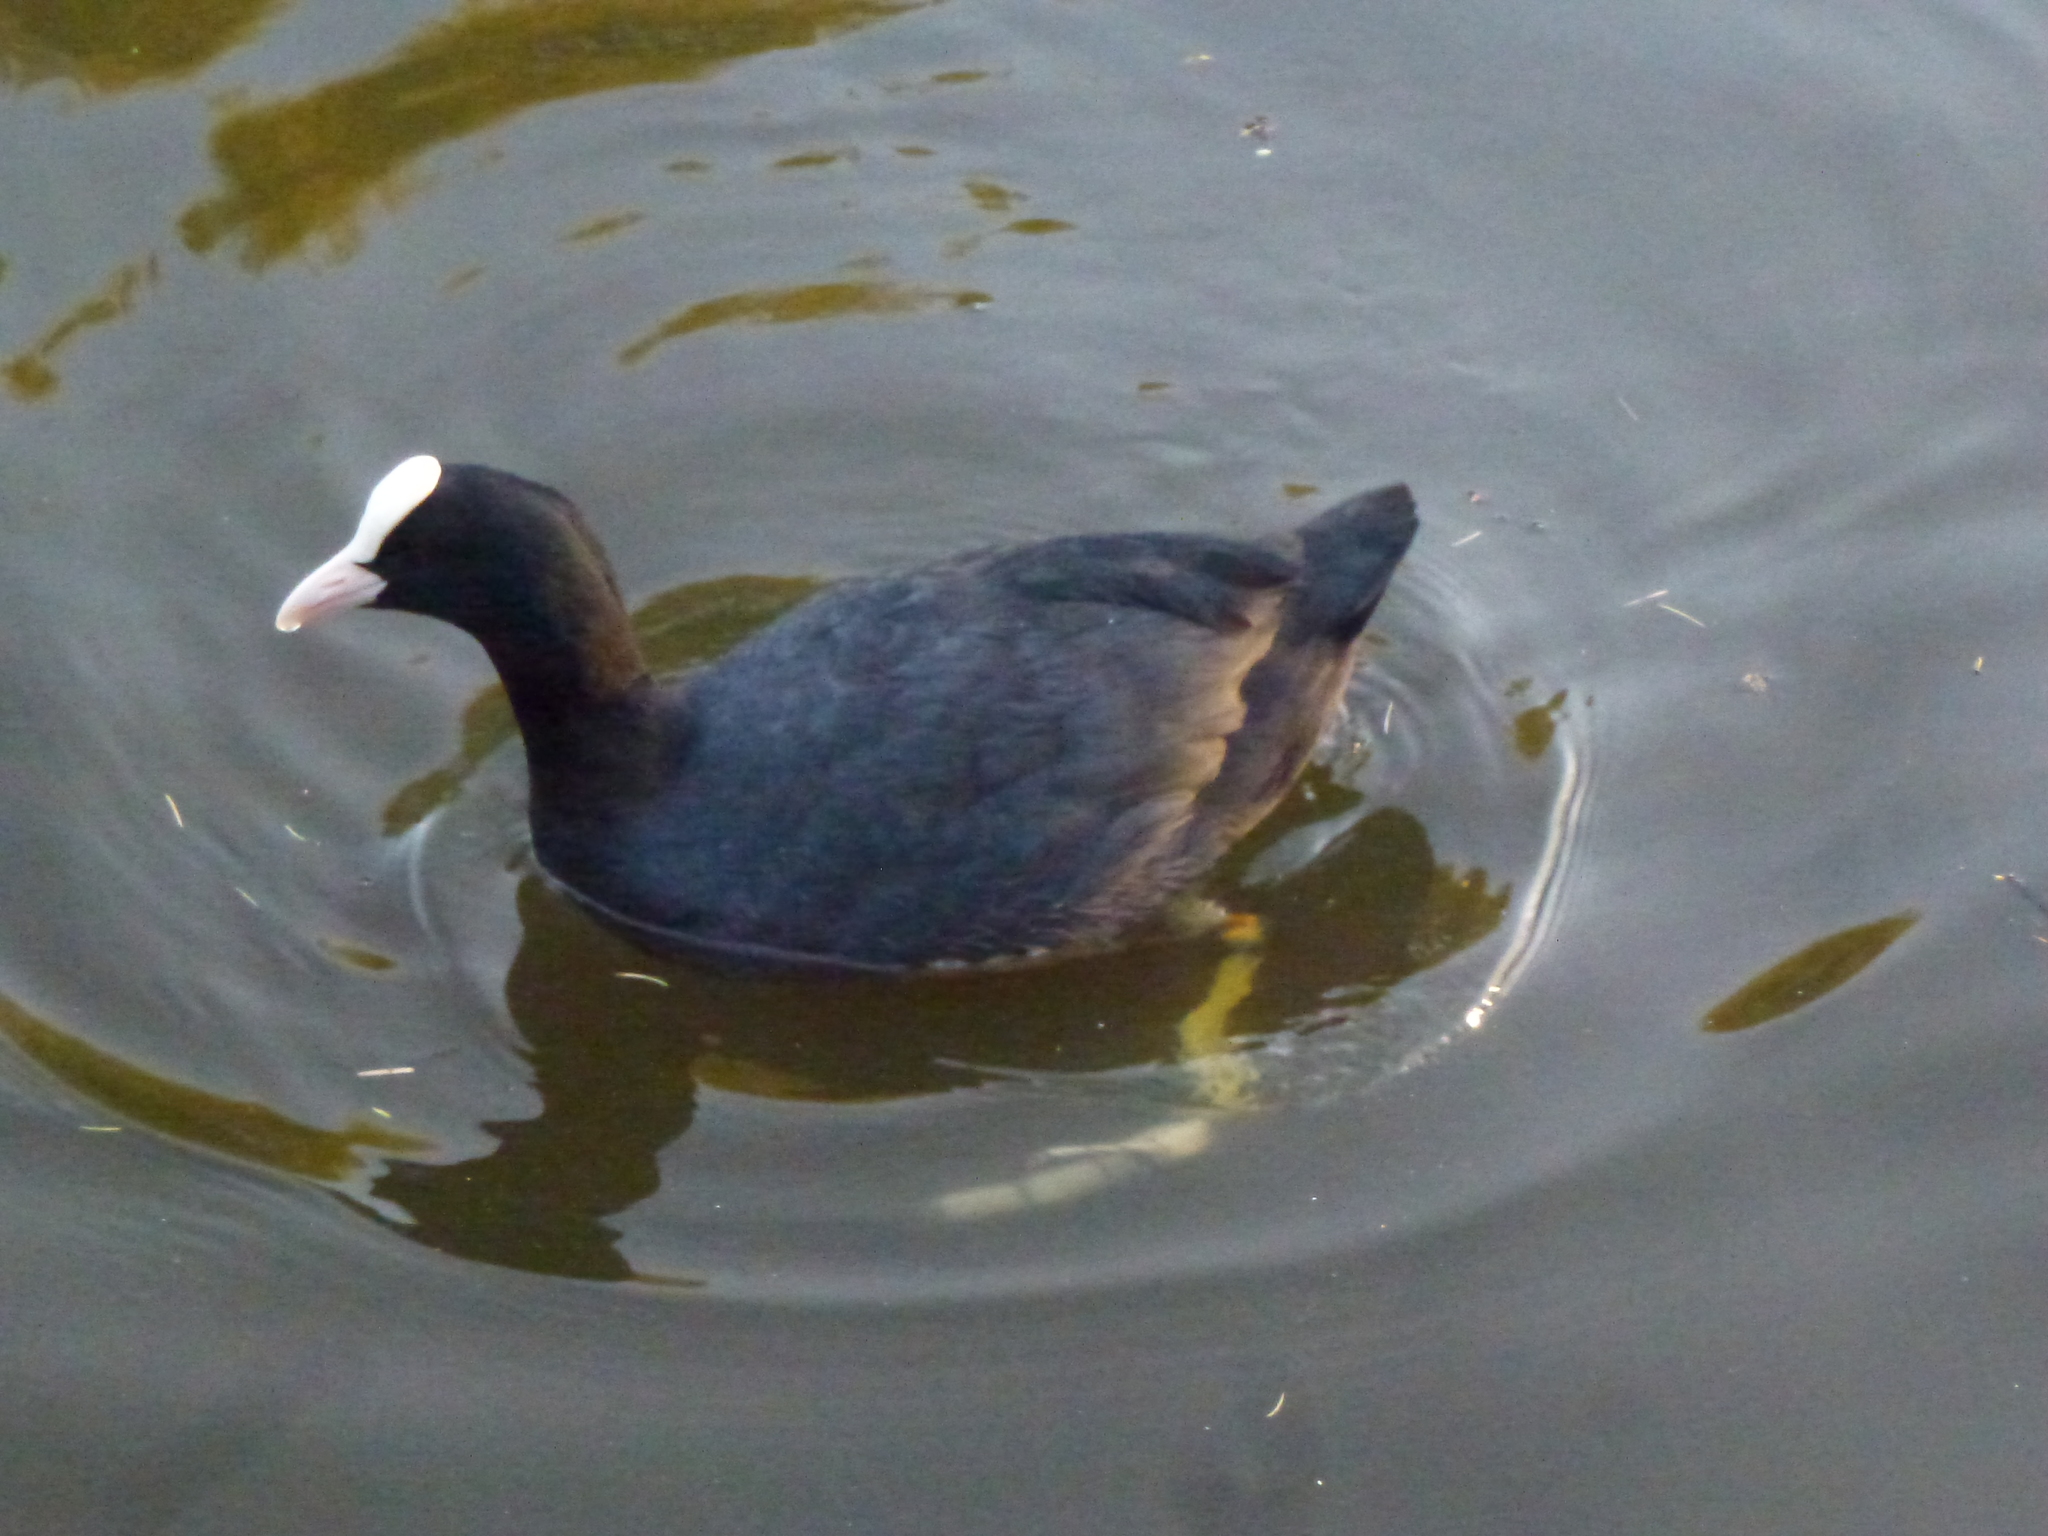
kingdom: Animalia
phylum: Chordata
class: Aves
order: Gruiformes
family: Rallidae
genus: Fulica
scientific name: Fulica atra
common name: Eurasian coot
